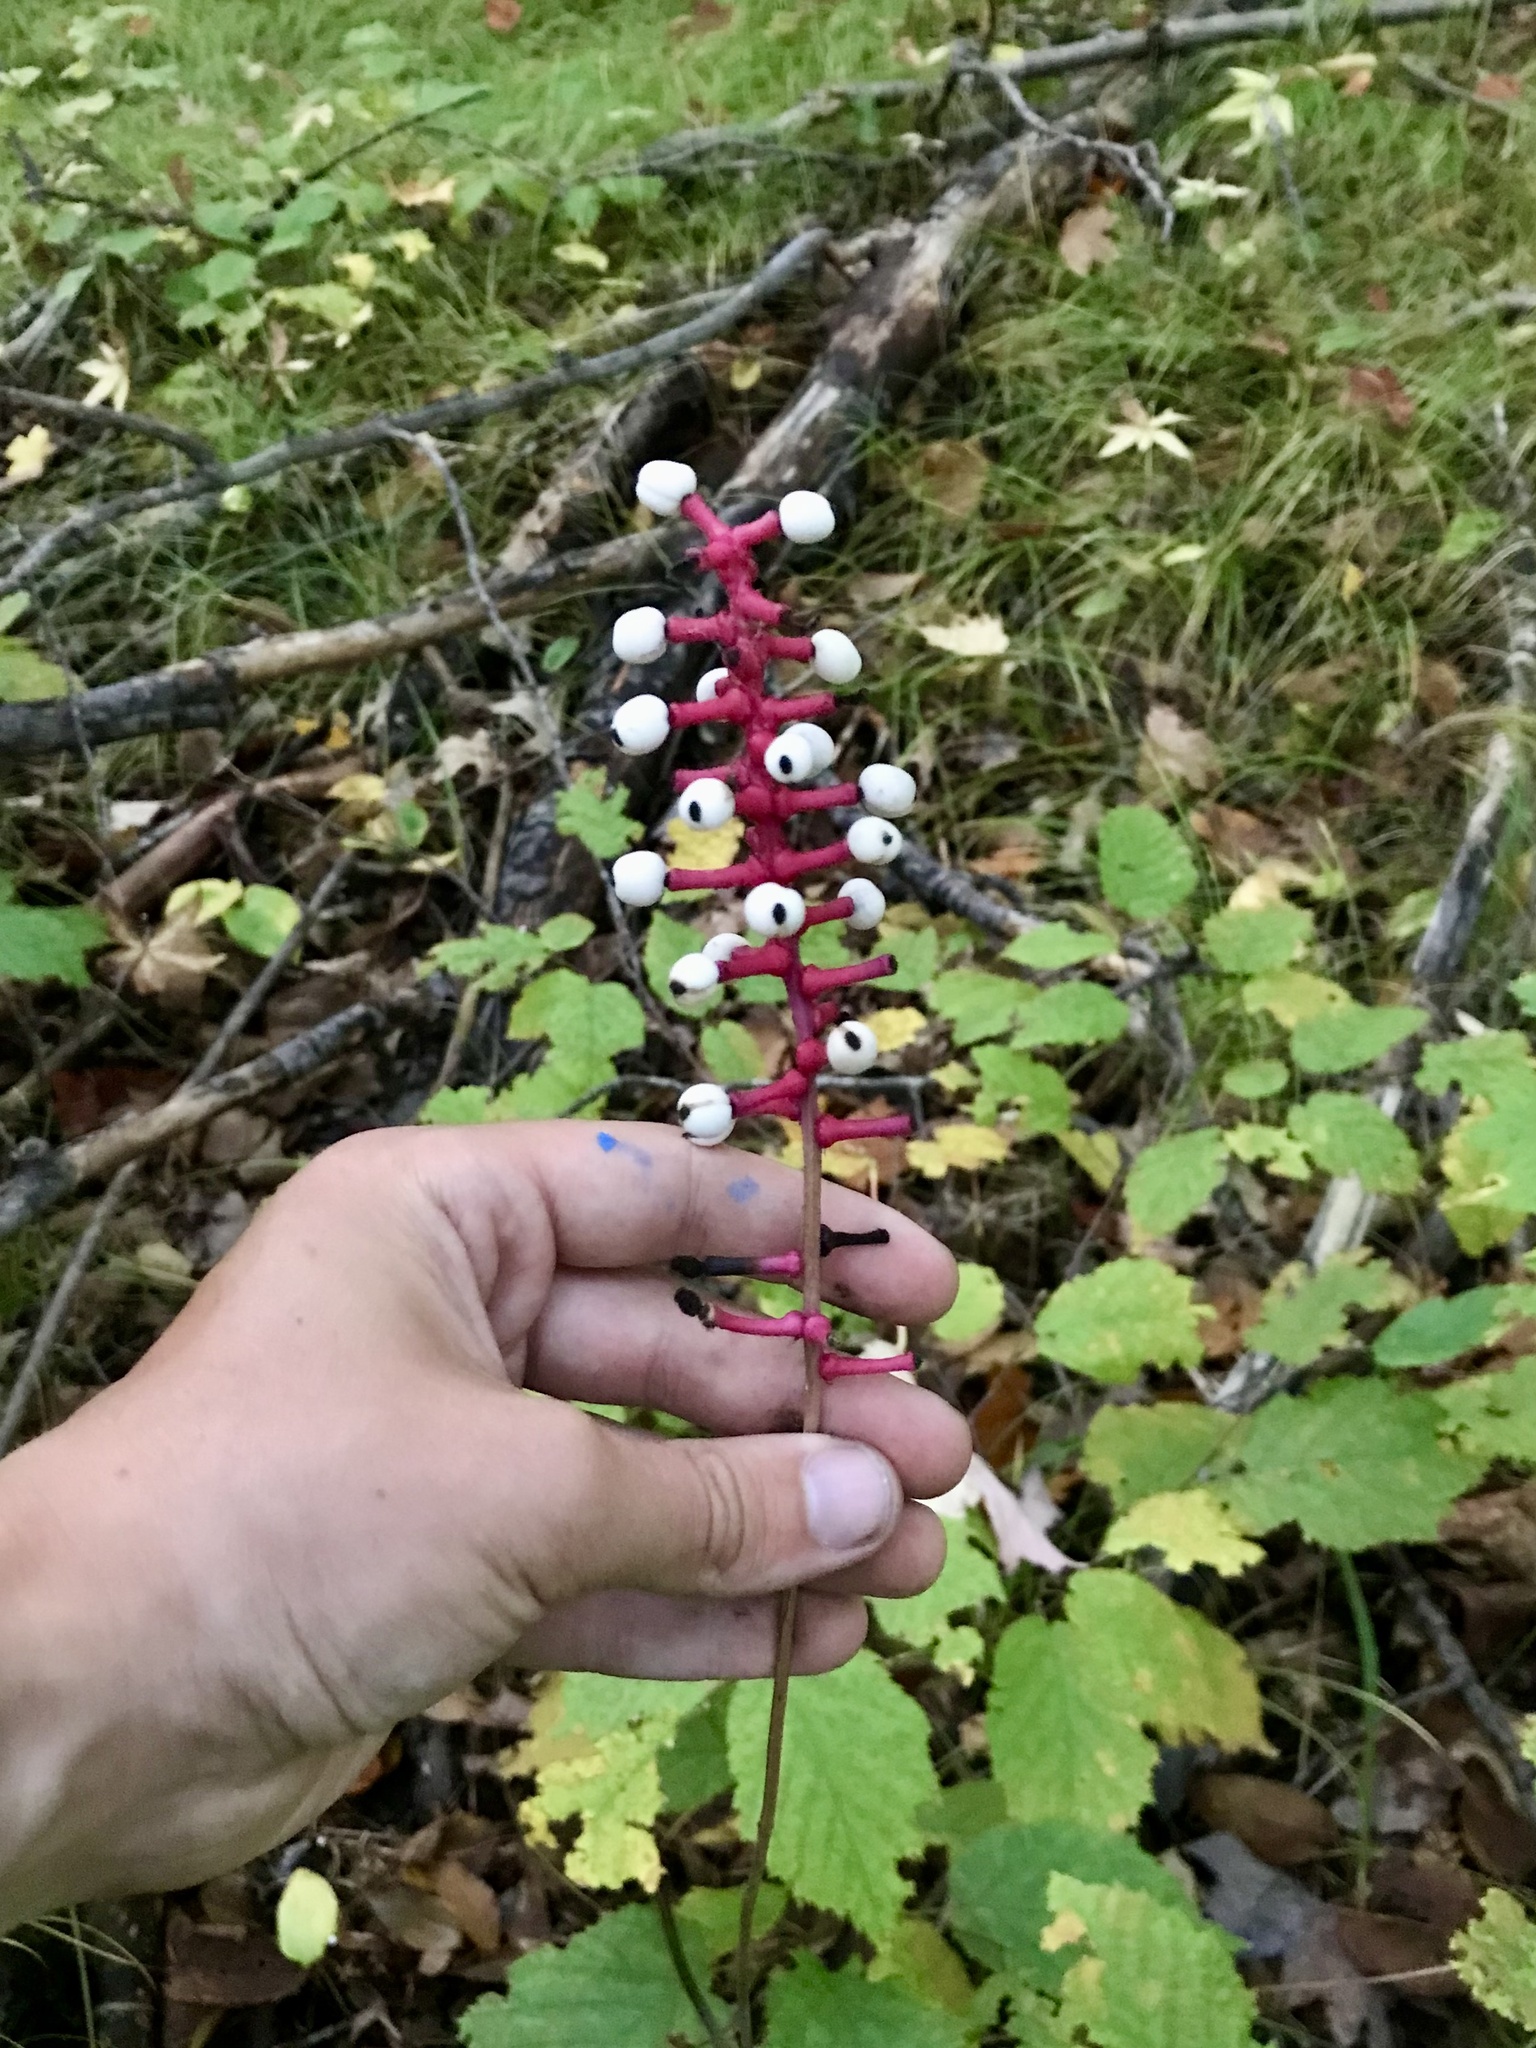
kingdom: Plantae
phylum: Tracheophyta
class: Magnoliopsida
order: Ranunculales
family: Ranunculaceae
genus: Actaea
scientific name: Actaea pachypoda
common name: Doll's-eyes
